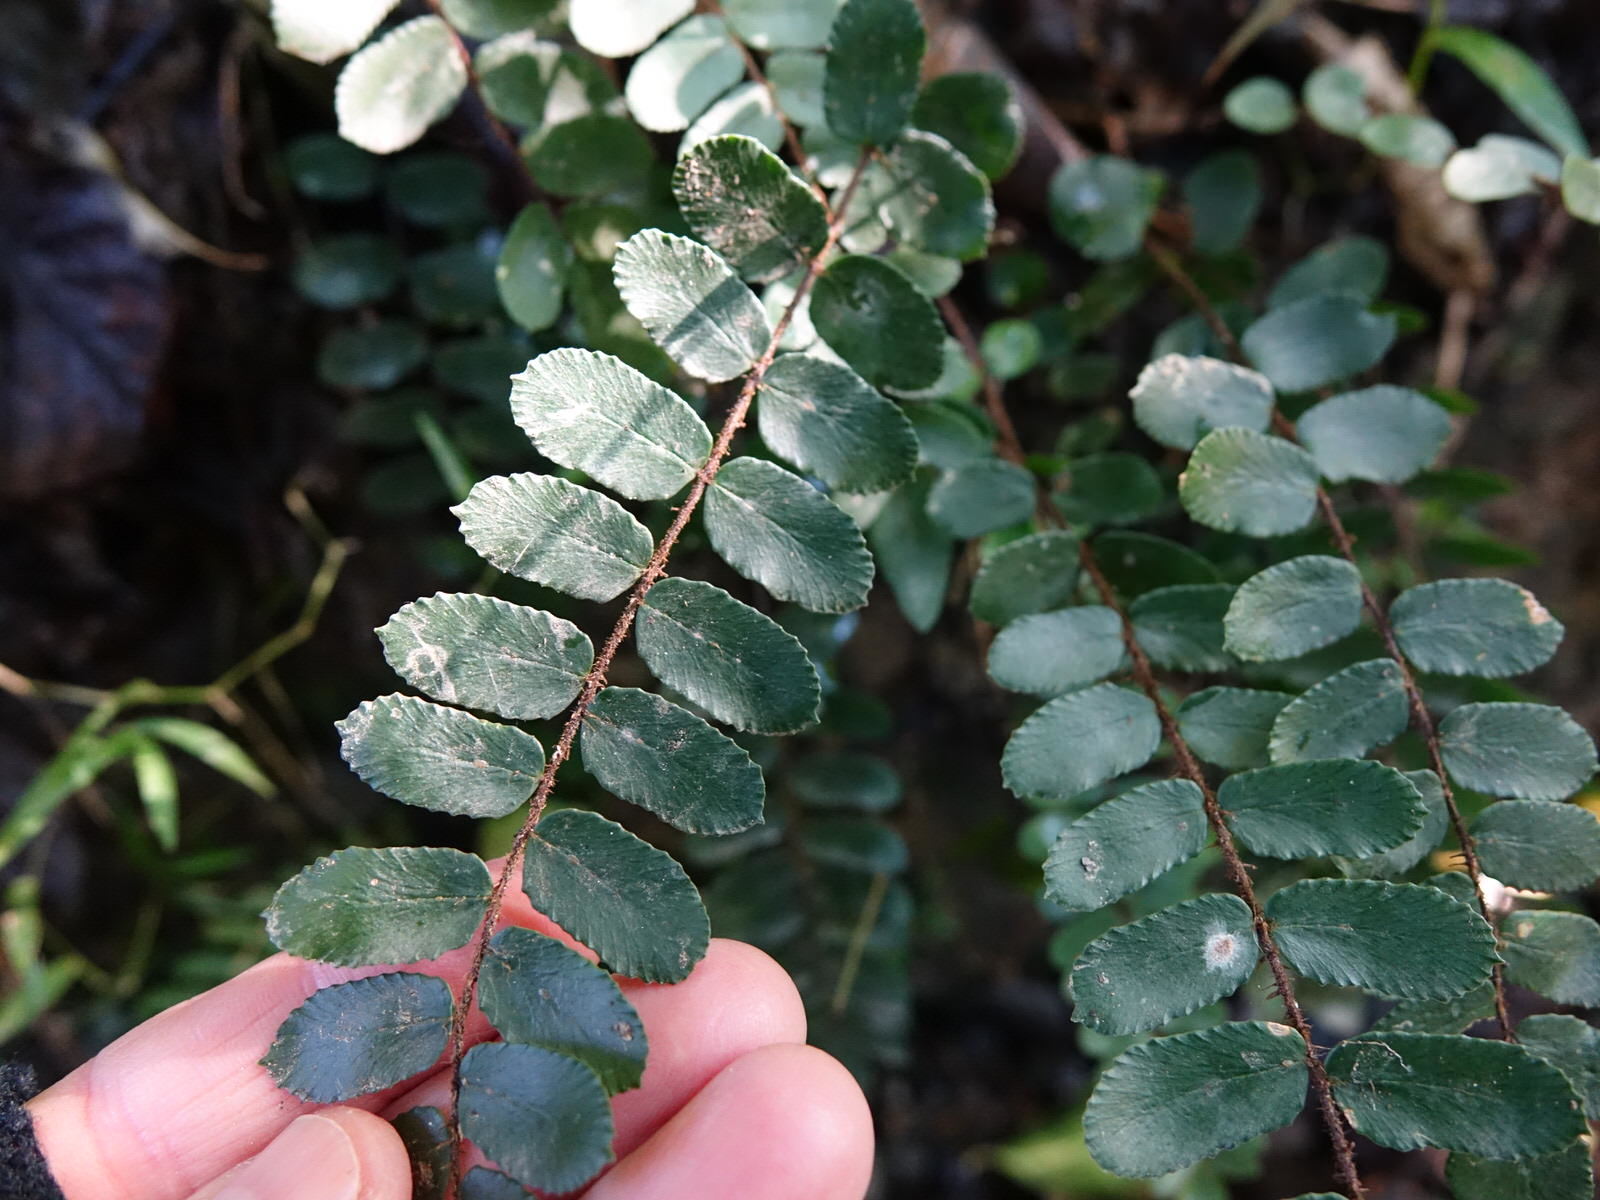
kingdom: Plantae
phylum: Tracheophyta
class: Polypodiopsida
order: Polypodiales
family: Pteridaceae
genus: Pellaea
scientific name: Pellaea rotundifolia
